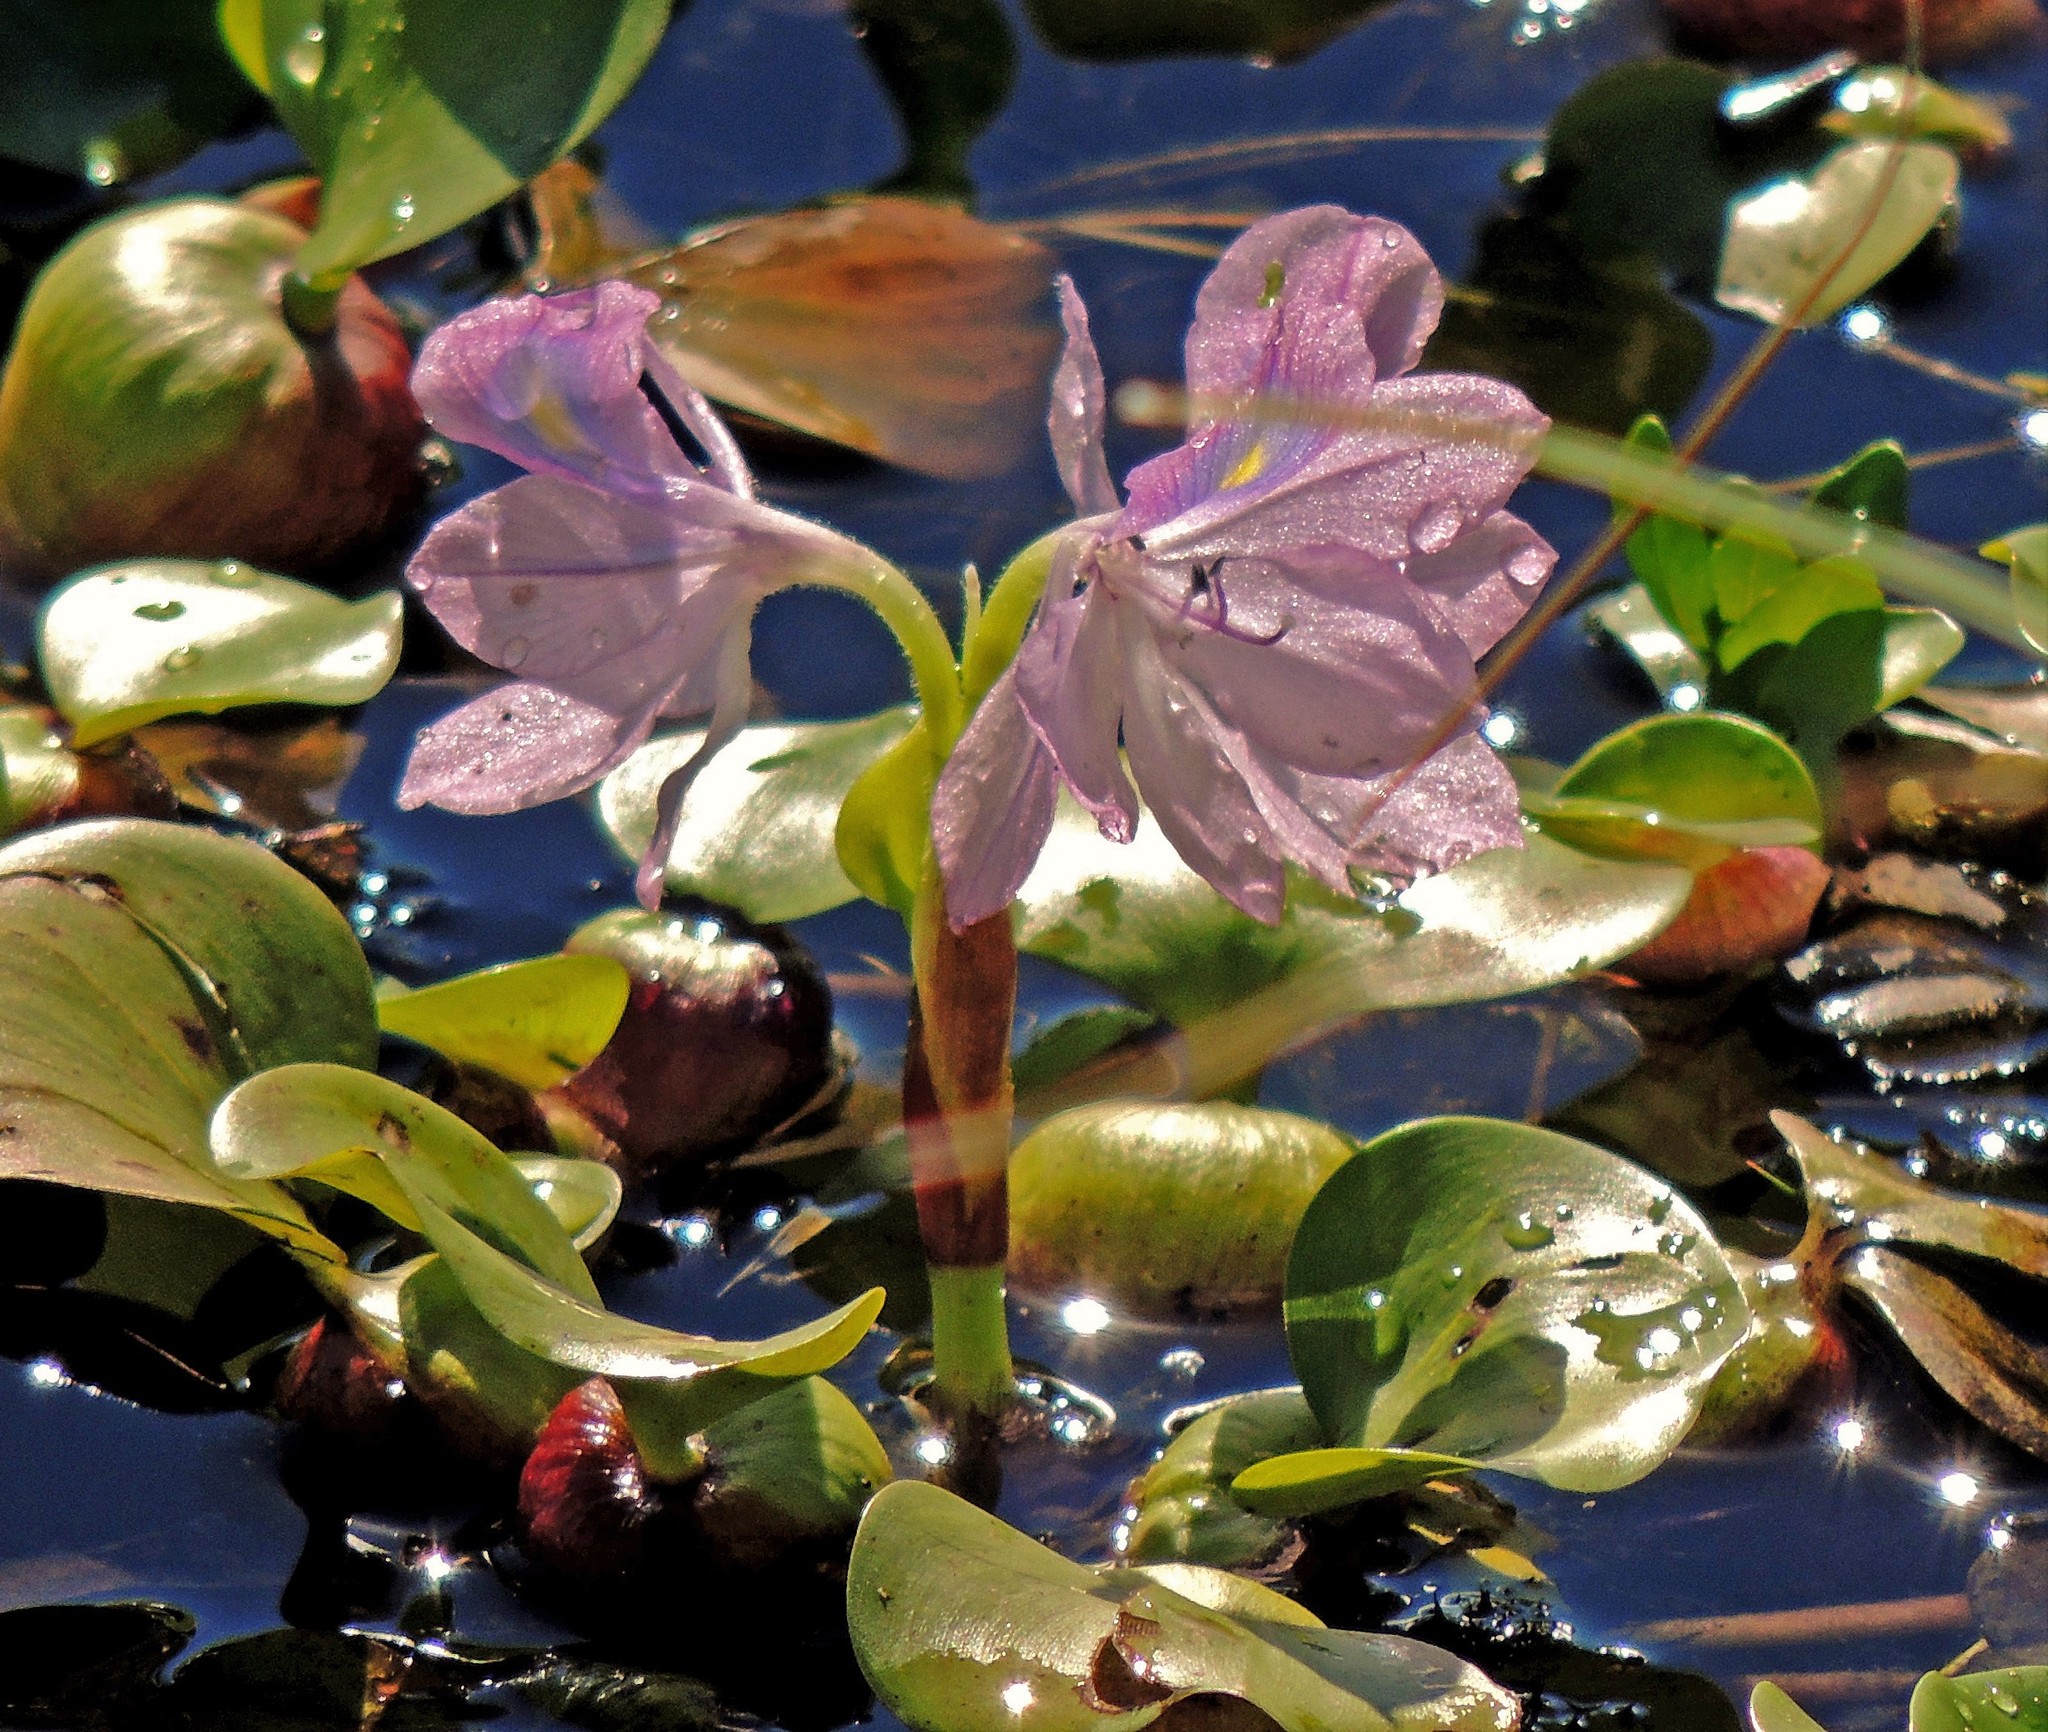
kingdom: Plantae
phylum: Tracheophyta
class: Liliopsida
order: Commelinales
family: Pontederiaceae
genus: Pontederia
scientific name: Pontederia crassipes
